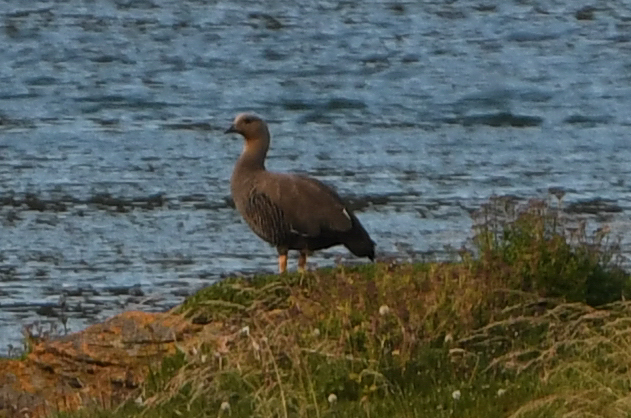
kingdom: Animalia
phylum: Chordata
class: Aves
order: Anseriformes
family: Anatidae
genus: Chloephaga
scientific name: Chloephaga picta
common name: Upland goose
